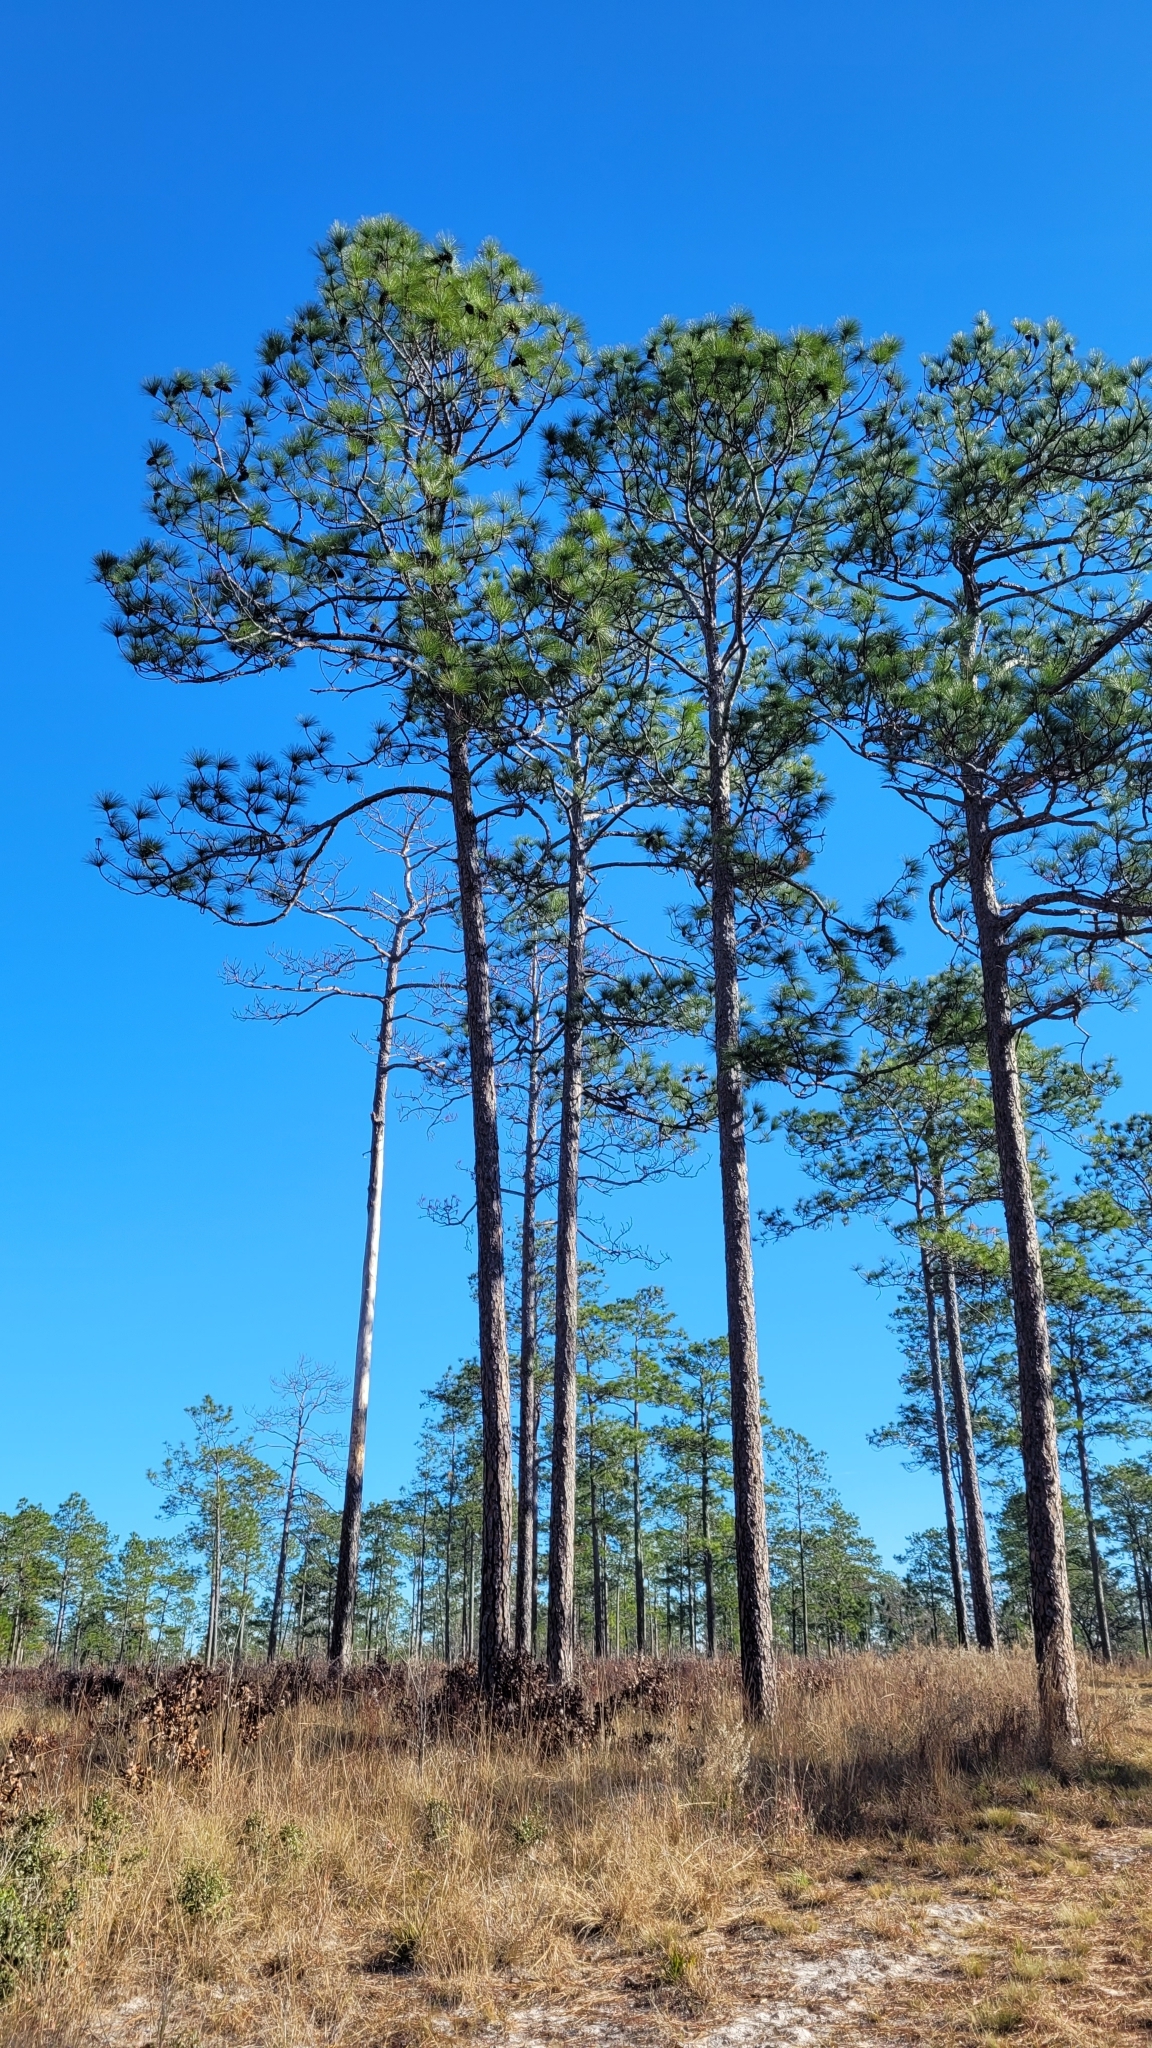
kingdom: Plantae
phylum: Tracheophyta
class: Pinopsida
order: Pinales
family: Pinaceae
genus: Pinus
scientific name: Pinus palustris
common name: Longleaf pine
